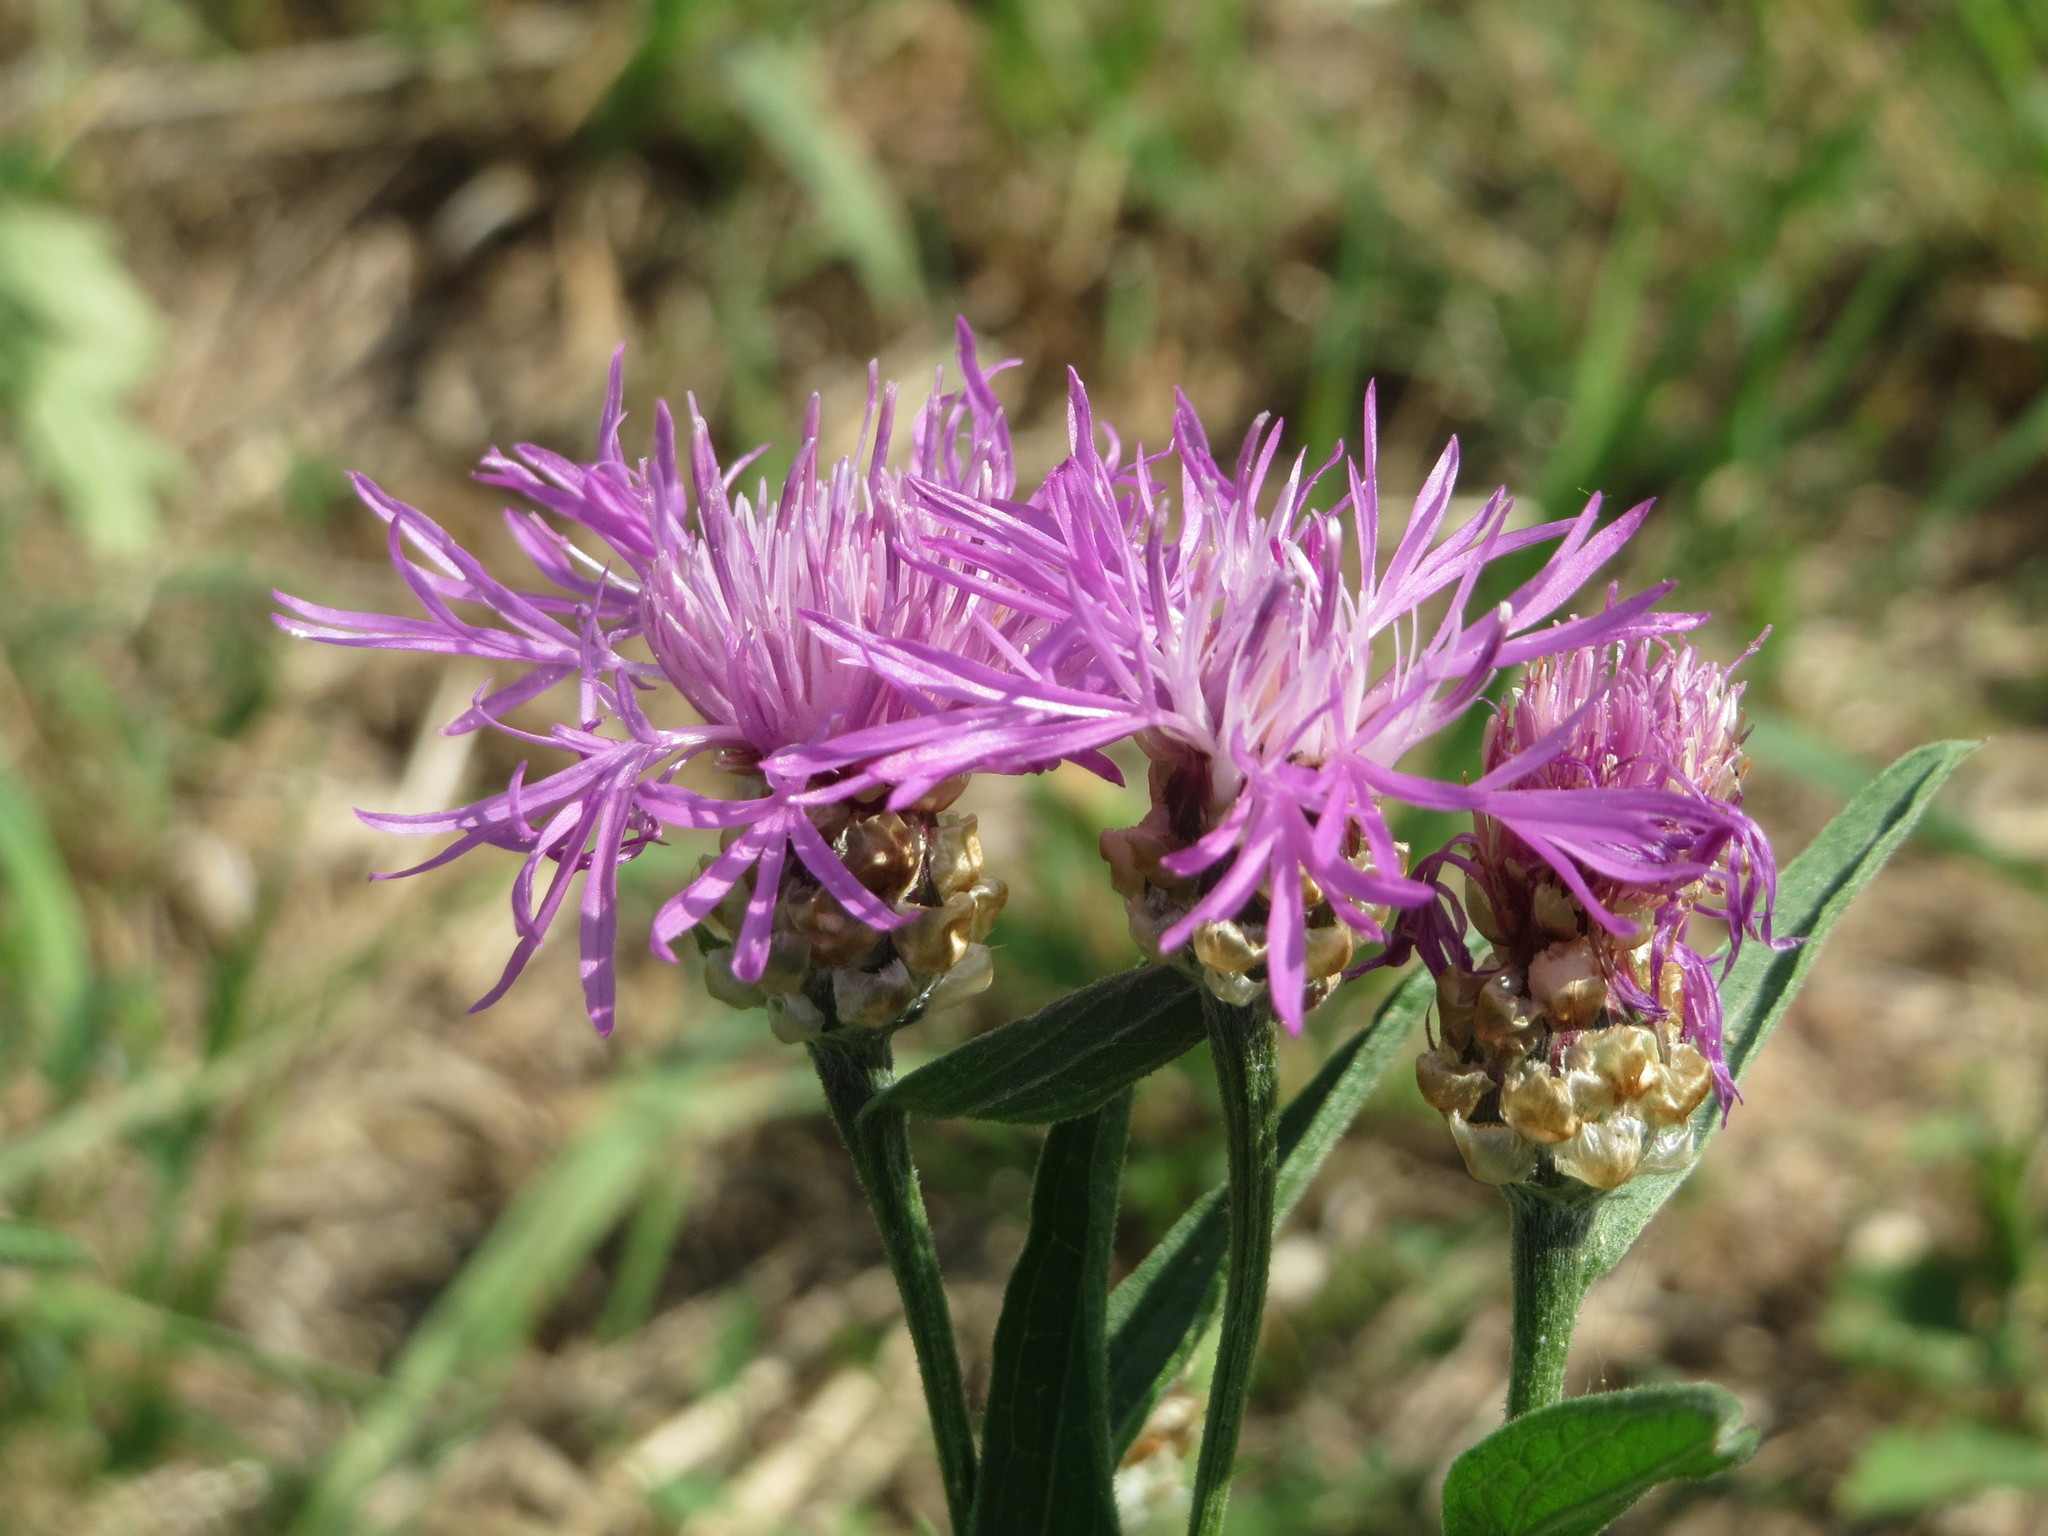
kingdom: Plantae
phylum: Tracheophyta
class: Magnoliopsida
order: Asterales
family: Asteraceae
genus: Centaurea
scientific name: Centaurea jacea
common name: Brown knapweed
